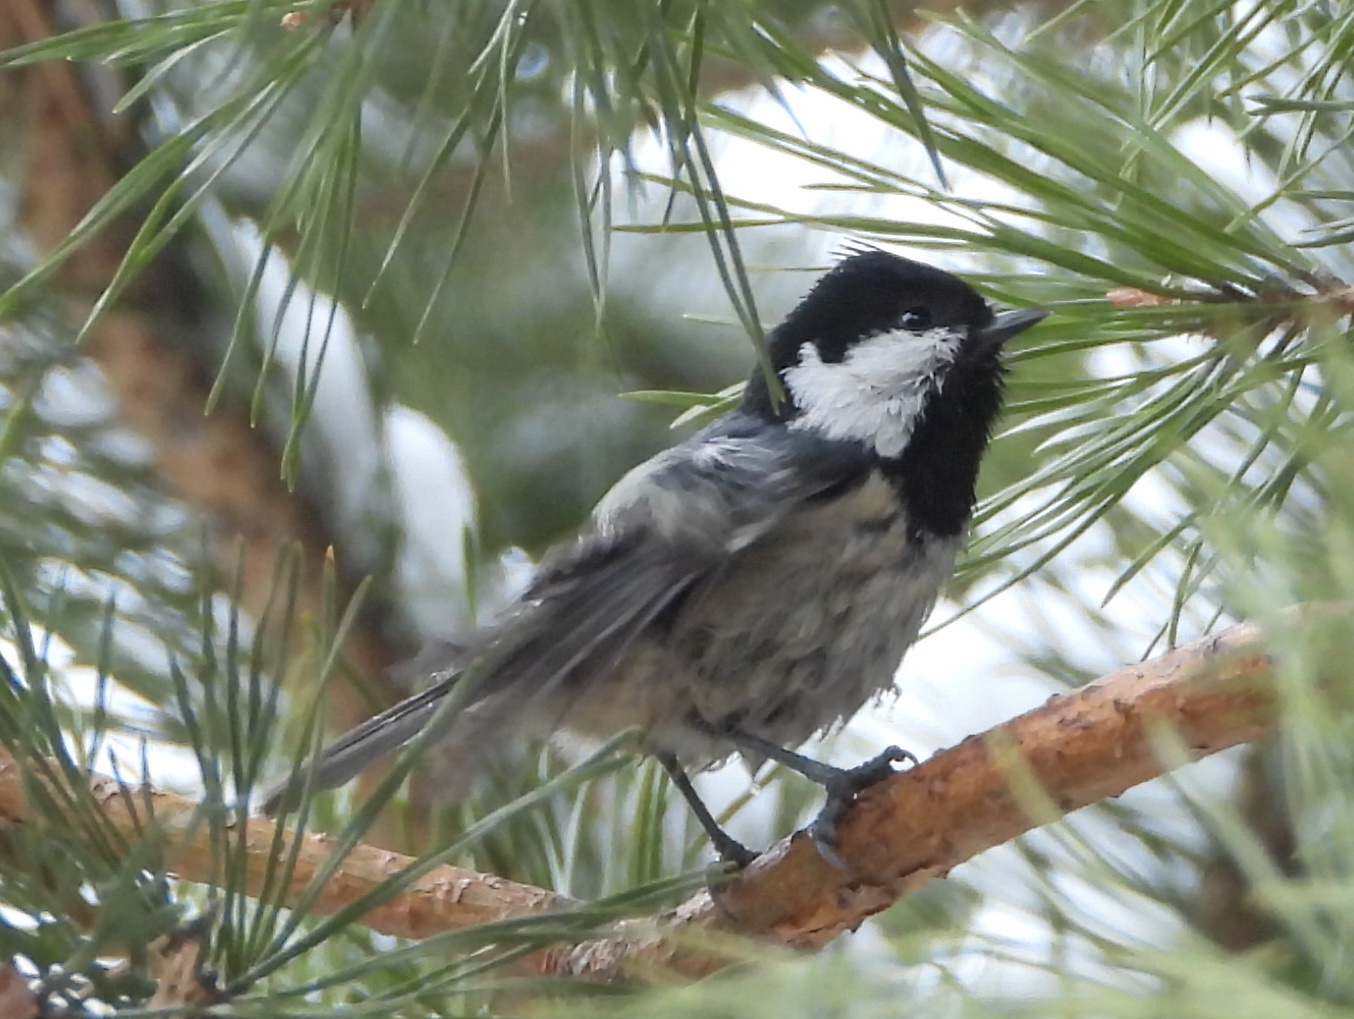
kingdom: Animalia
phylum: Chordata
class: Aves
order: Passeriformes
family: Paridae
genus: Periparus
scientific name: Periparus ater
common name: Coal tit
